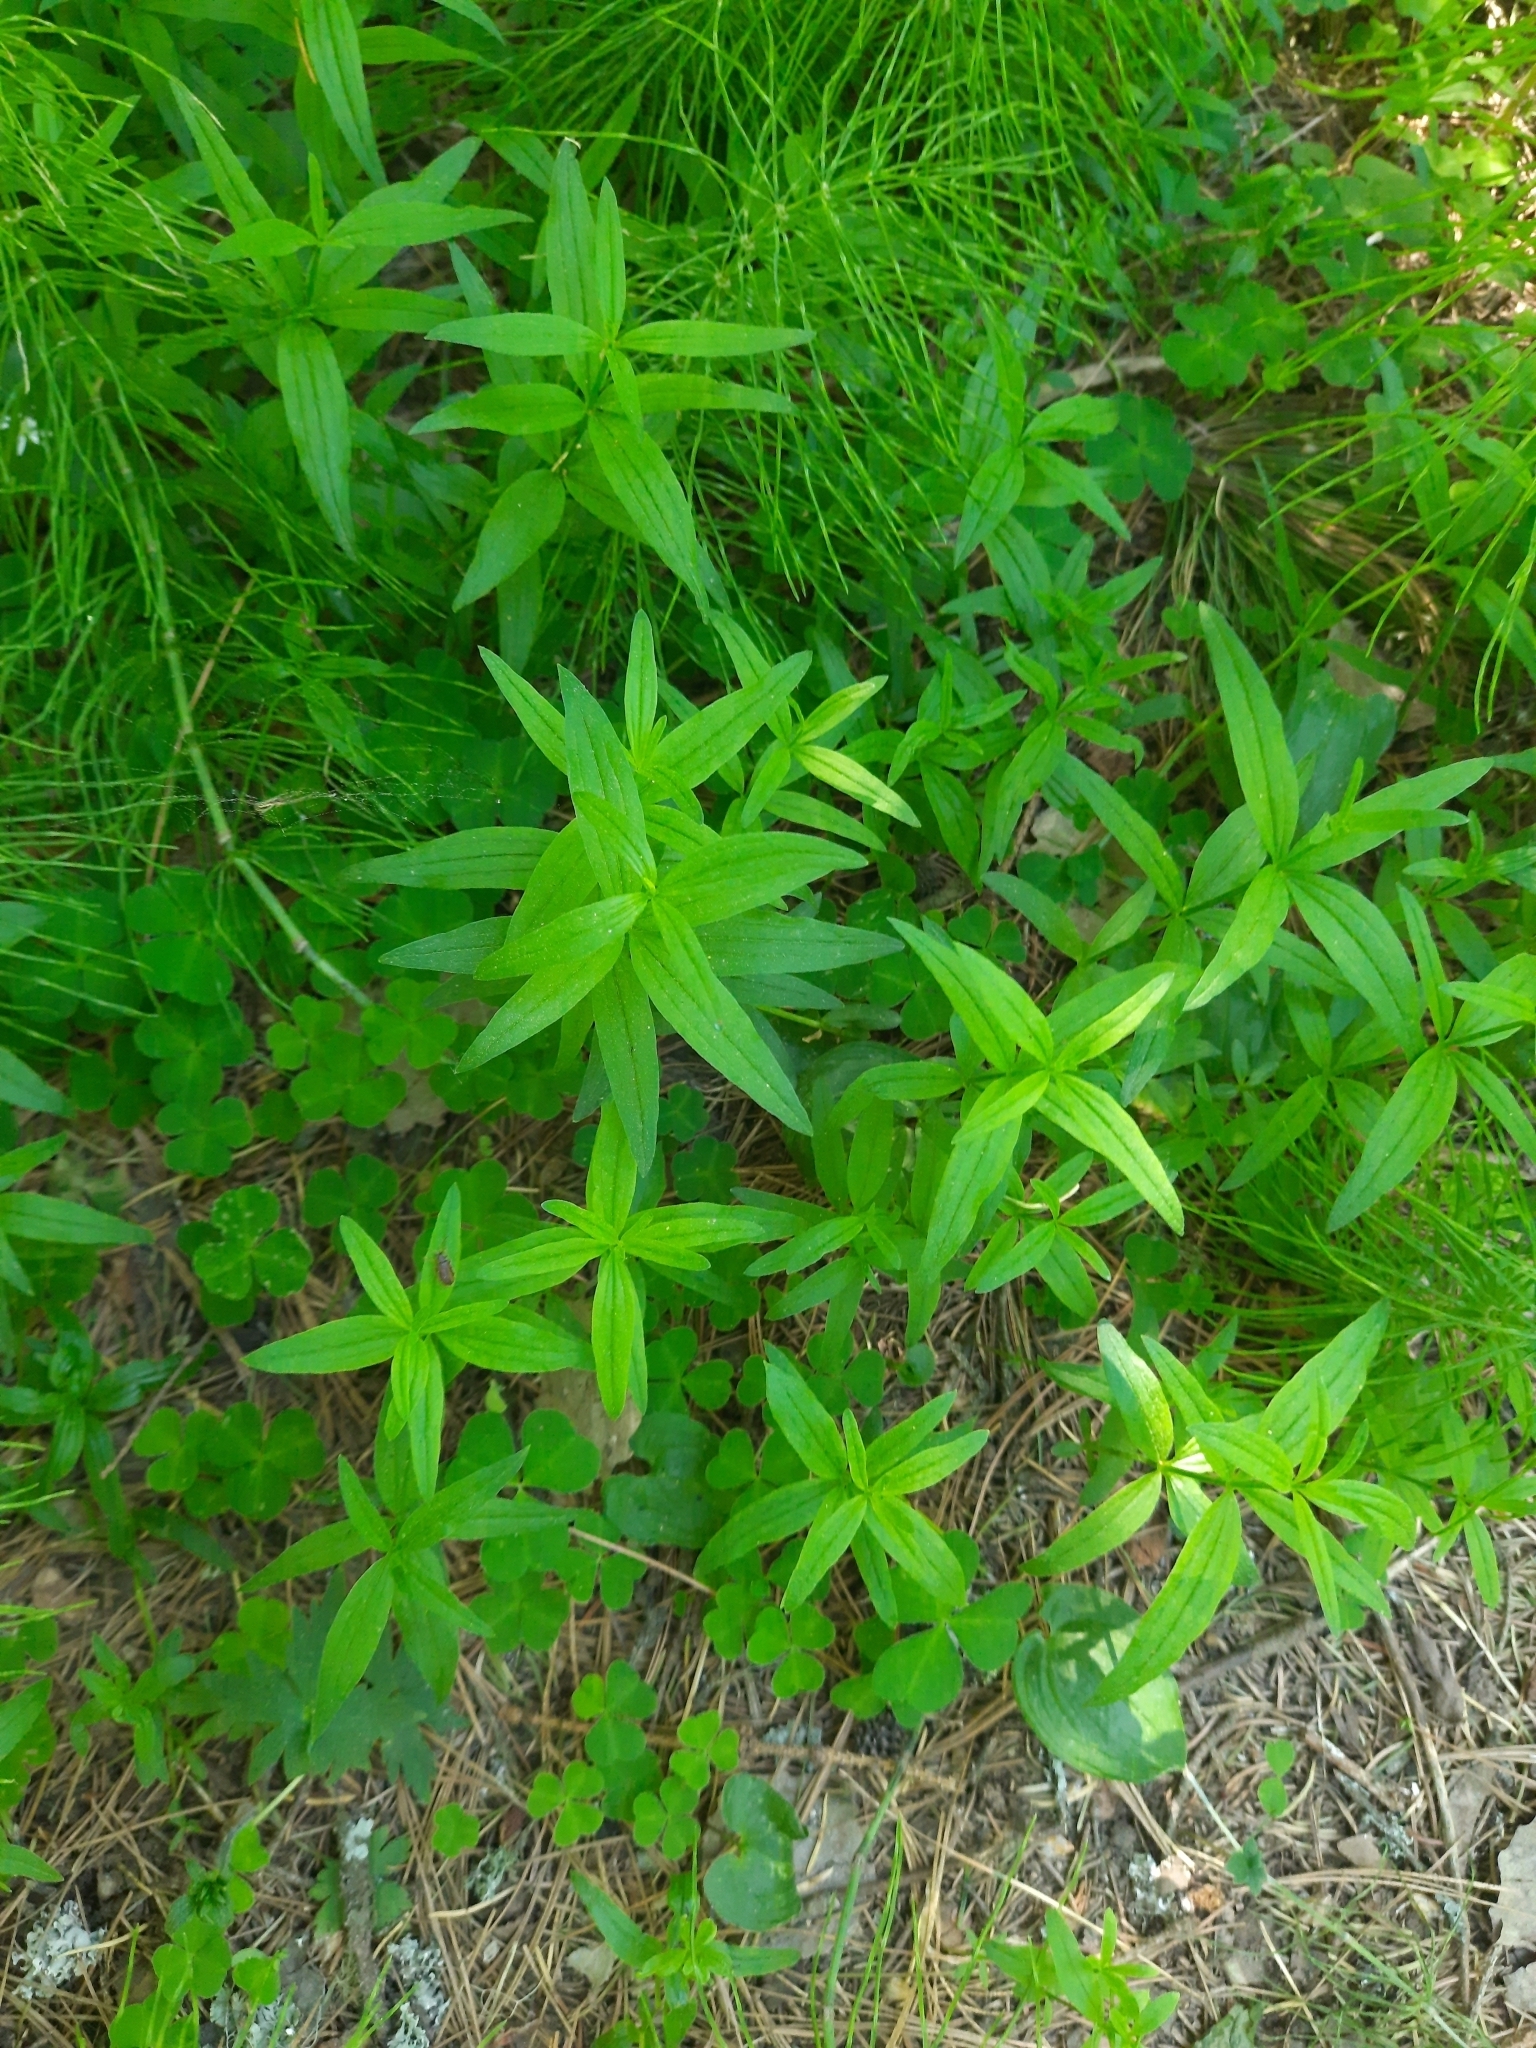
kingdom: Plantae
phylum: Tracheophyta
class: Magnoliopsida
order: Gentianales
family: Rubiaceae
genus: Galium
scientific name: Galium boreale
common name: Northern bedstraw
